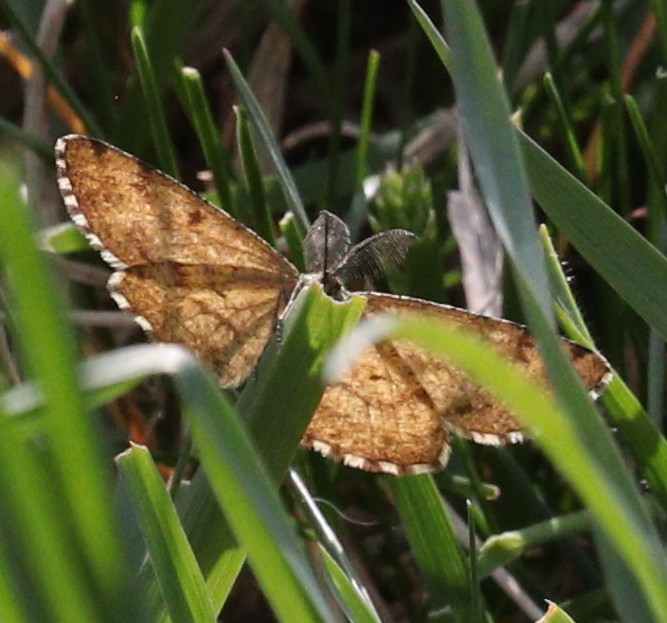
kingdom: Animalia
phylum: Arthropoda
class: Insecta
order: Lepidoptera
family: Geometridae
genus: Ematurga
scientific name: Ematurga atomaria
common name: Common heath
